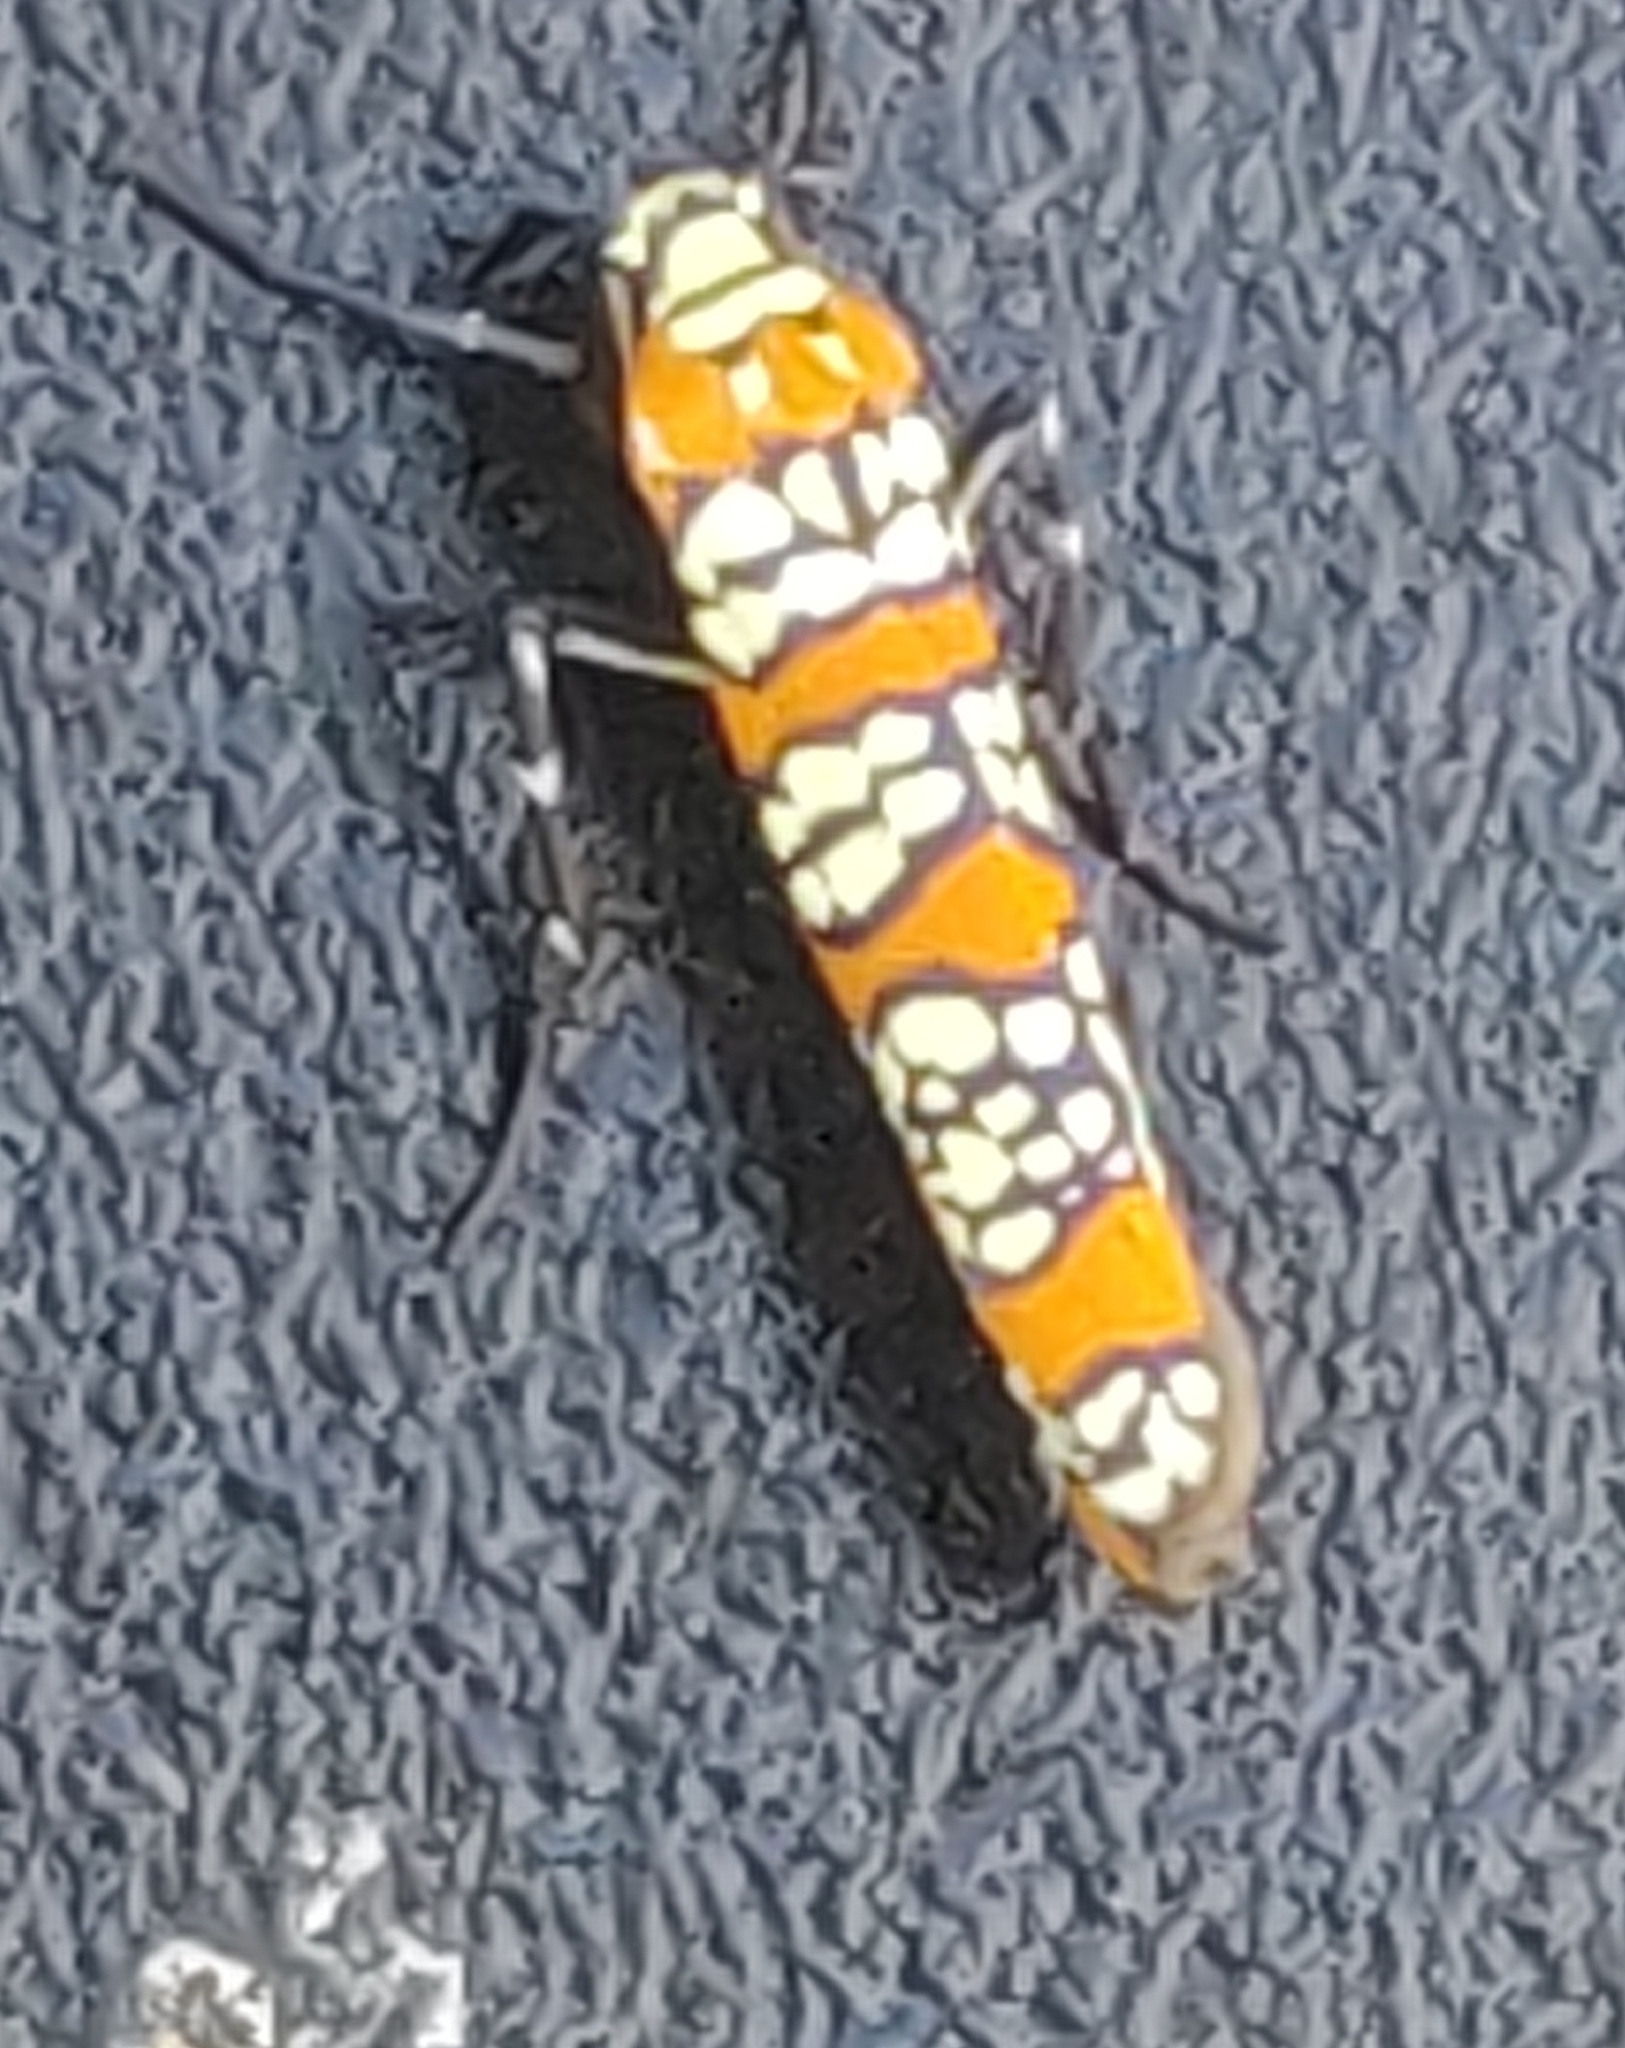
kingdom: Animalia
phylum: Arthropoda
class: Insecta
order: Lepidoptera
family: Attevidae
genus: Atteva
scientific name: Atteva punctella
